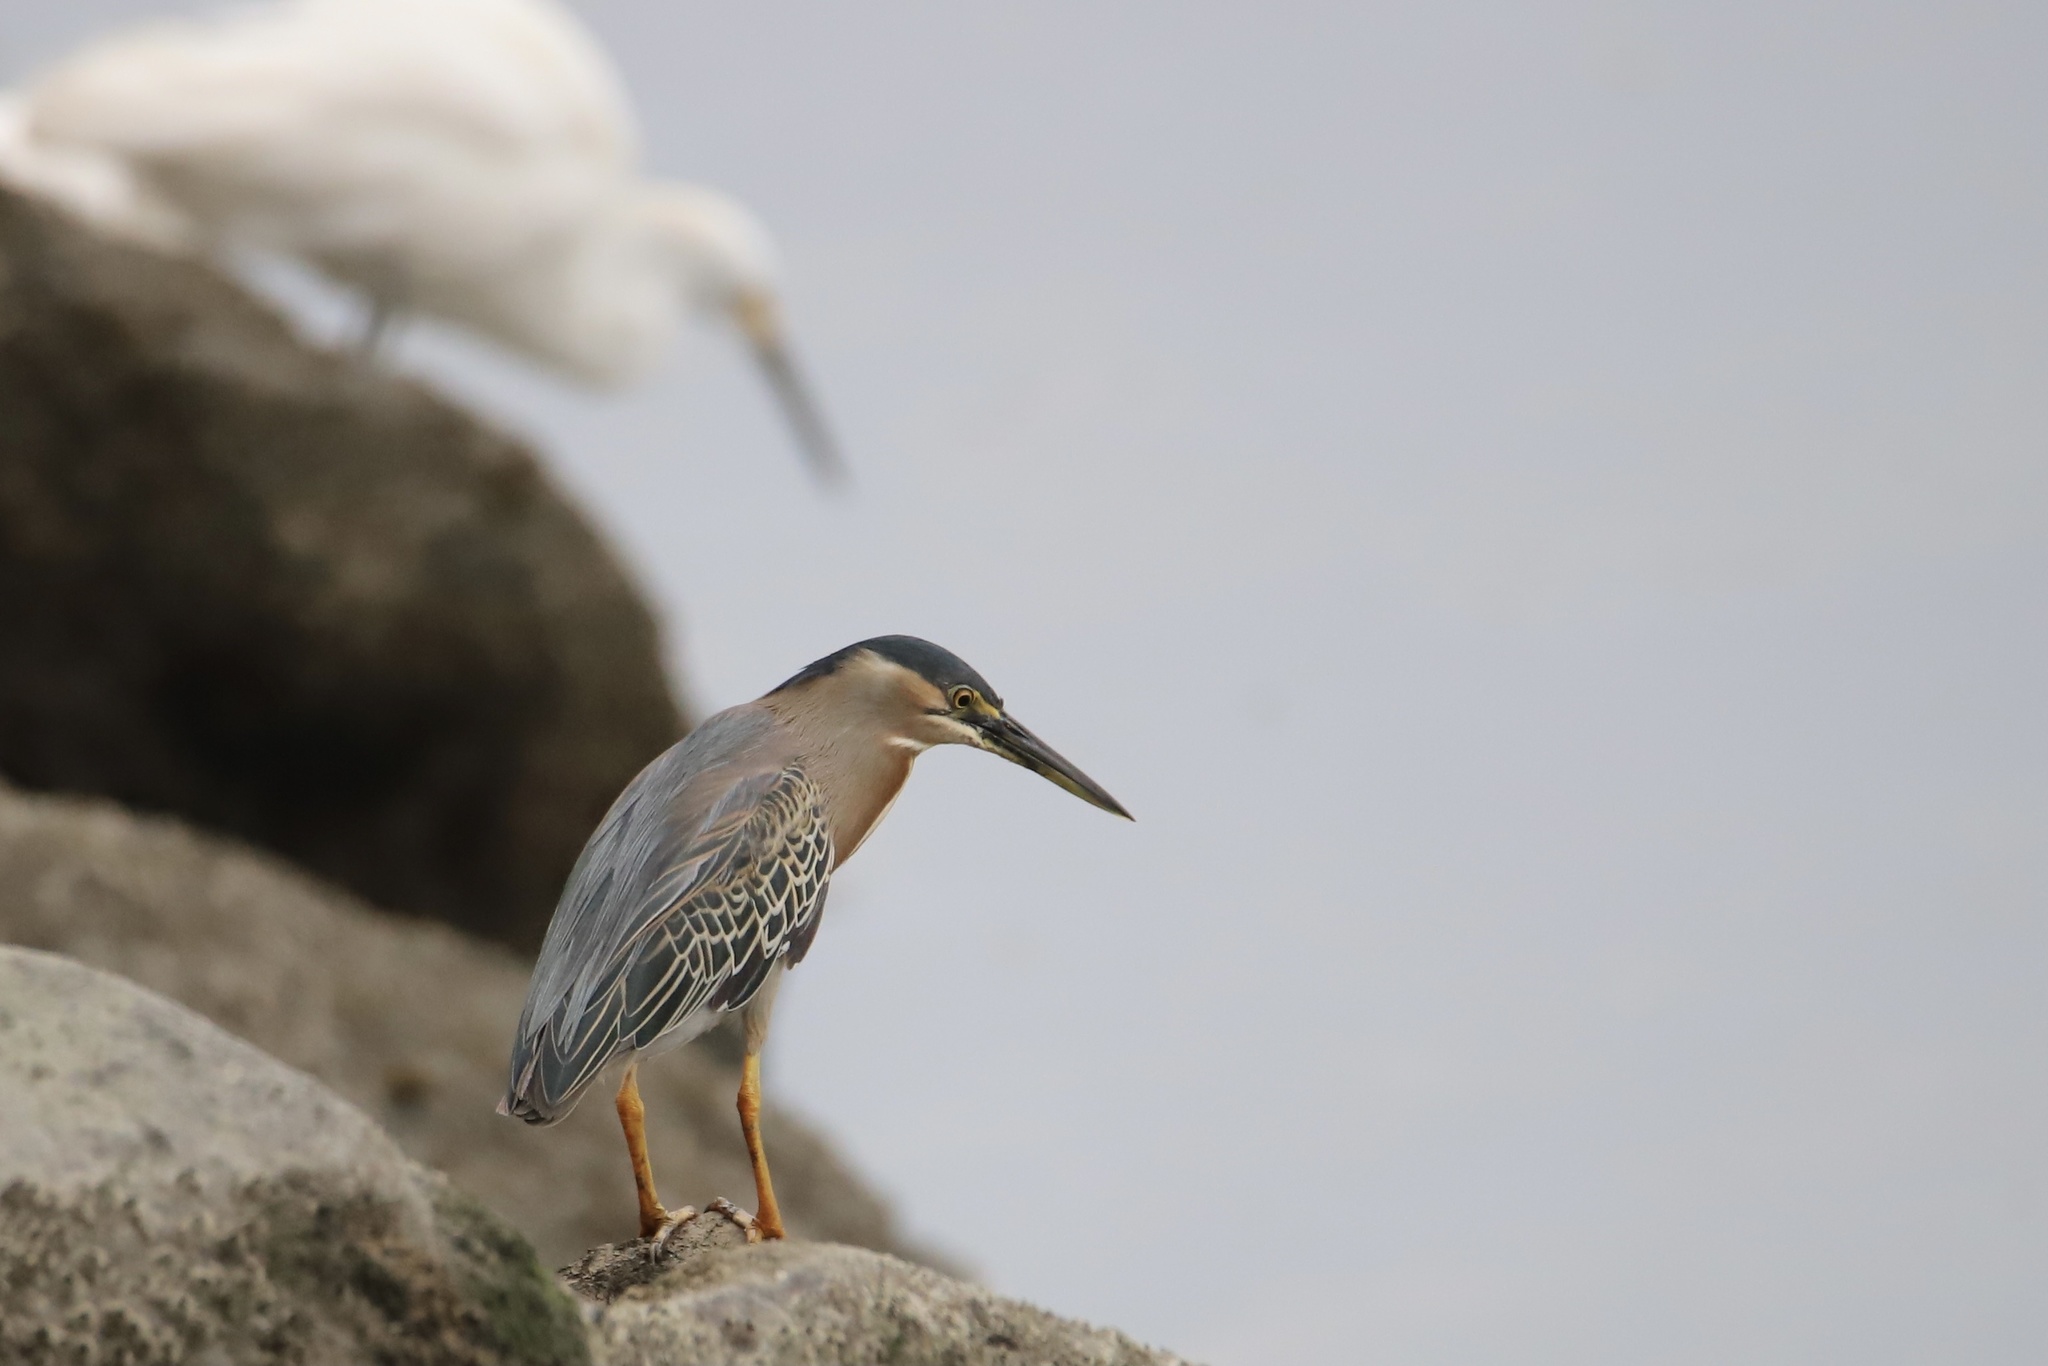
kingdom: Animalia
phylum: Chordata
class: Aves
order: Pelecaniformes
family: Ardeidae
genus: Butorides
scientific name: Butorides striata
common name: Striated heron
